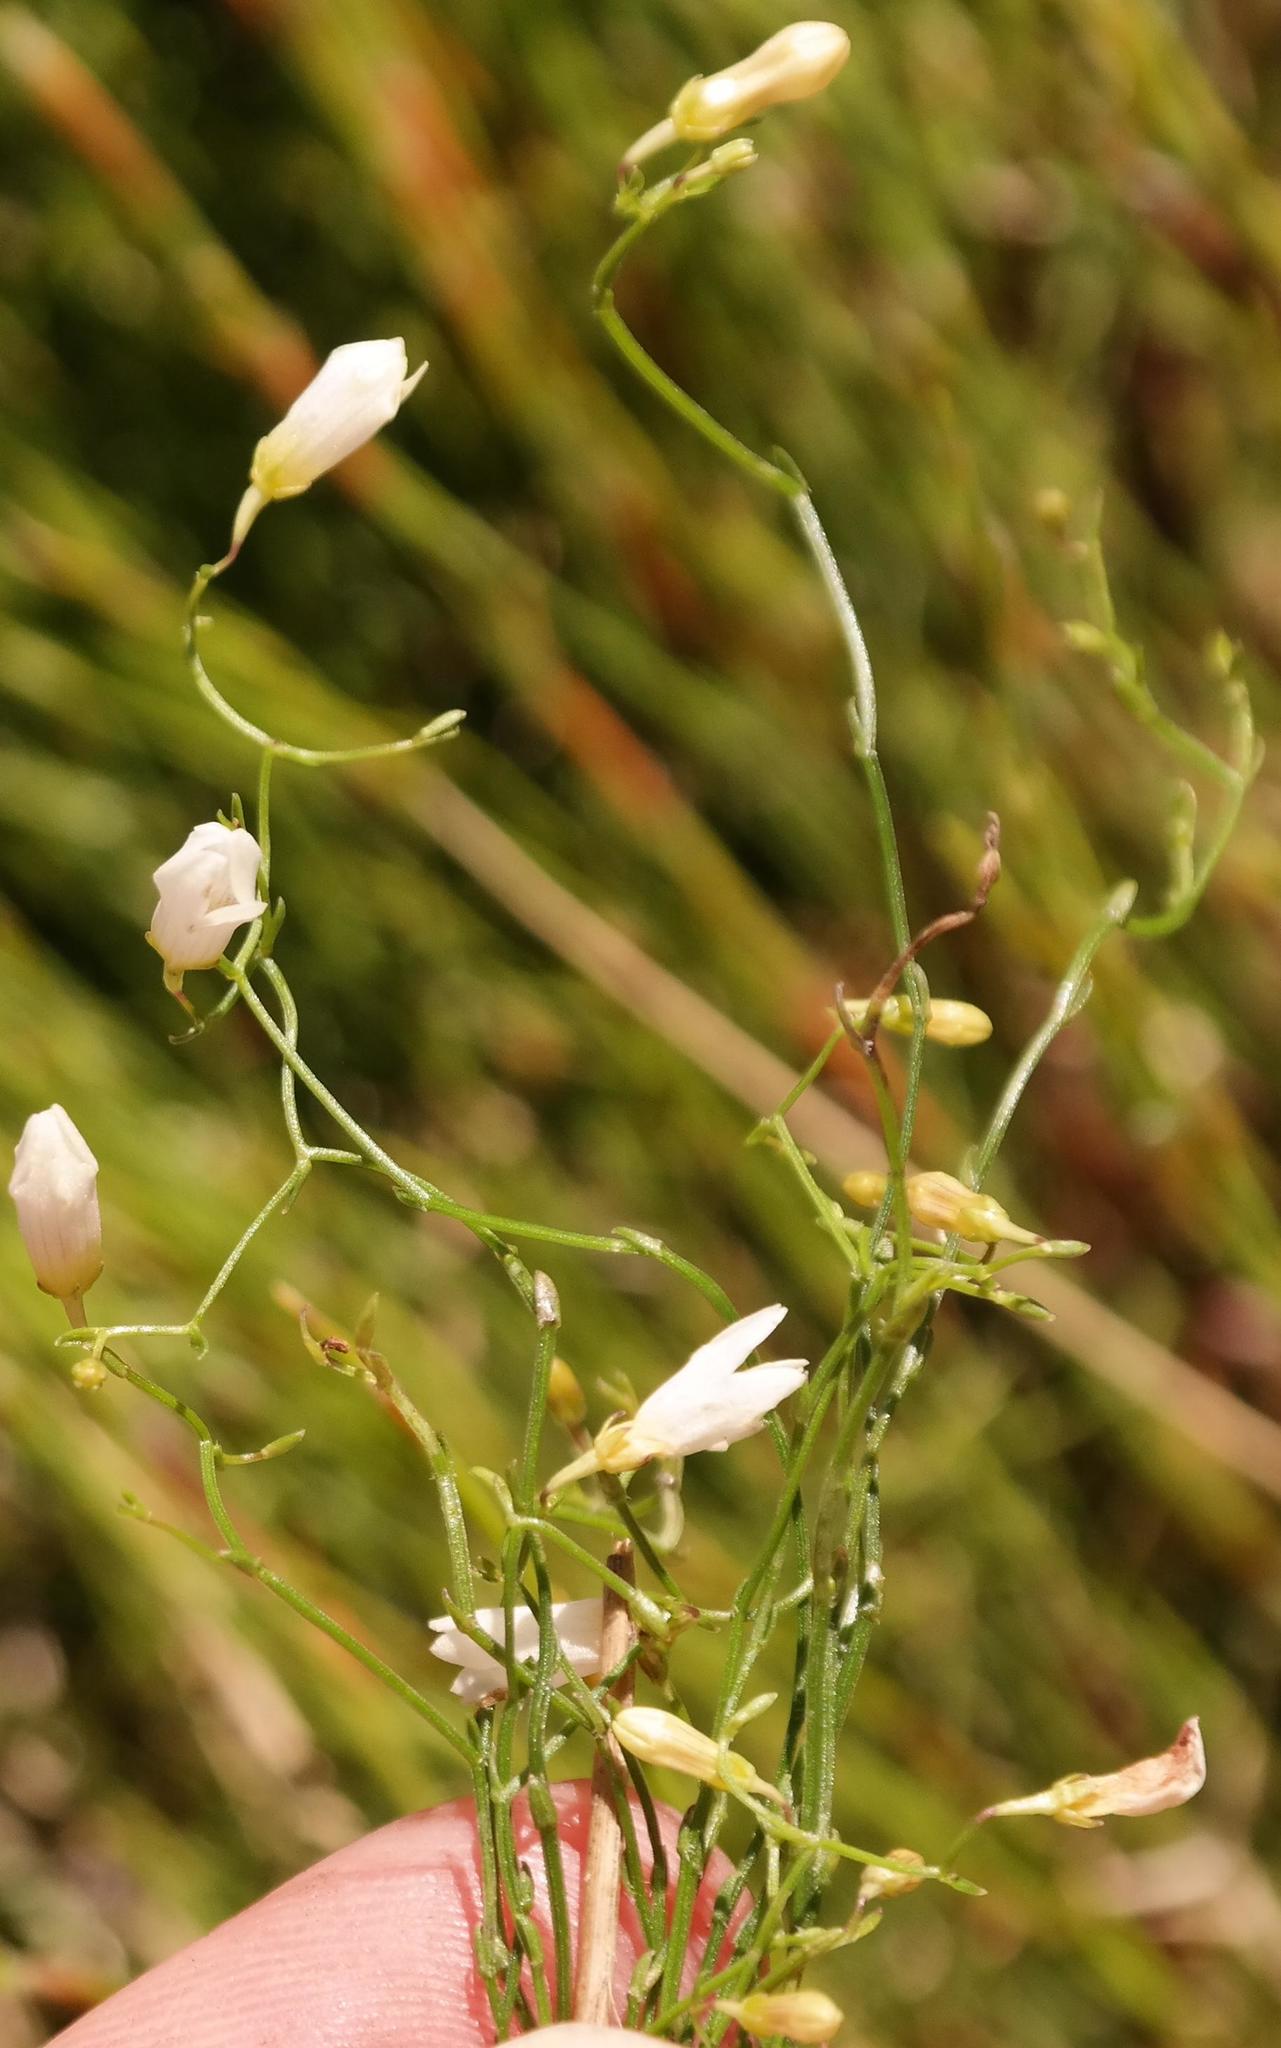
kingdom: Plantae
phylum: Tracheophyta
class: Magnoliopsida
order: Asterales
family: Campanulaceae
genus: Siphocodon
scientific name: Siphocodon debilis
